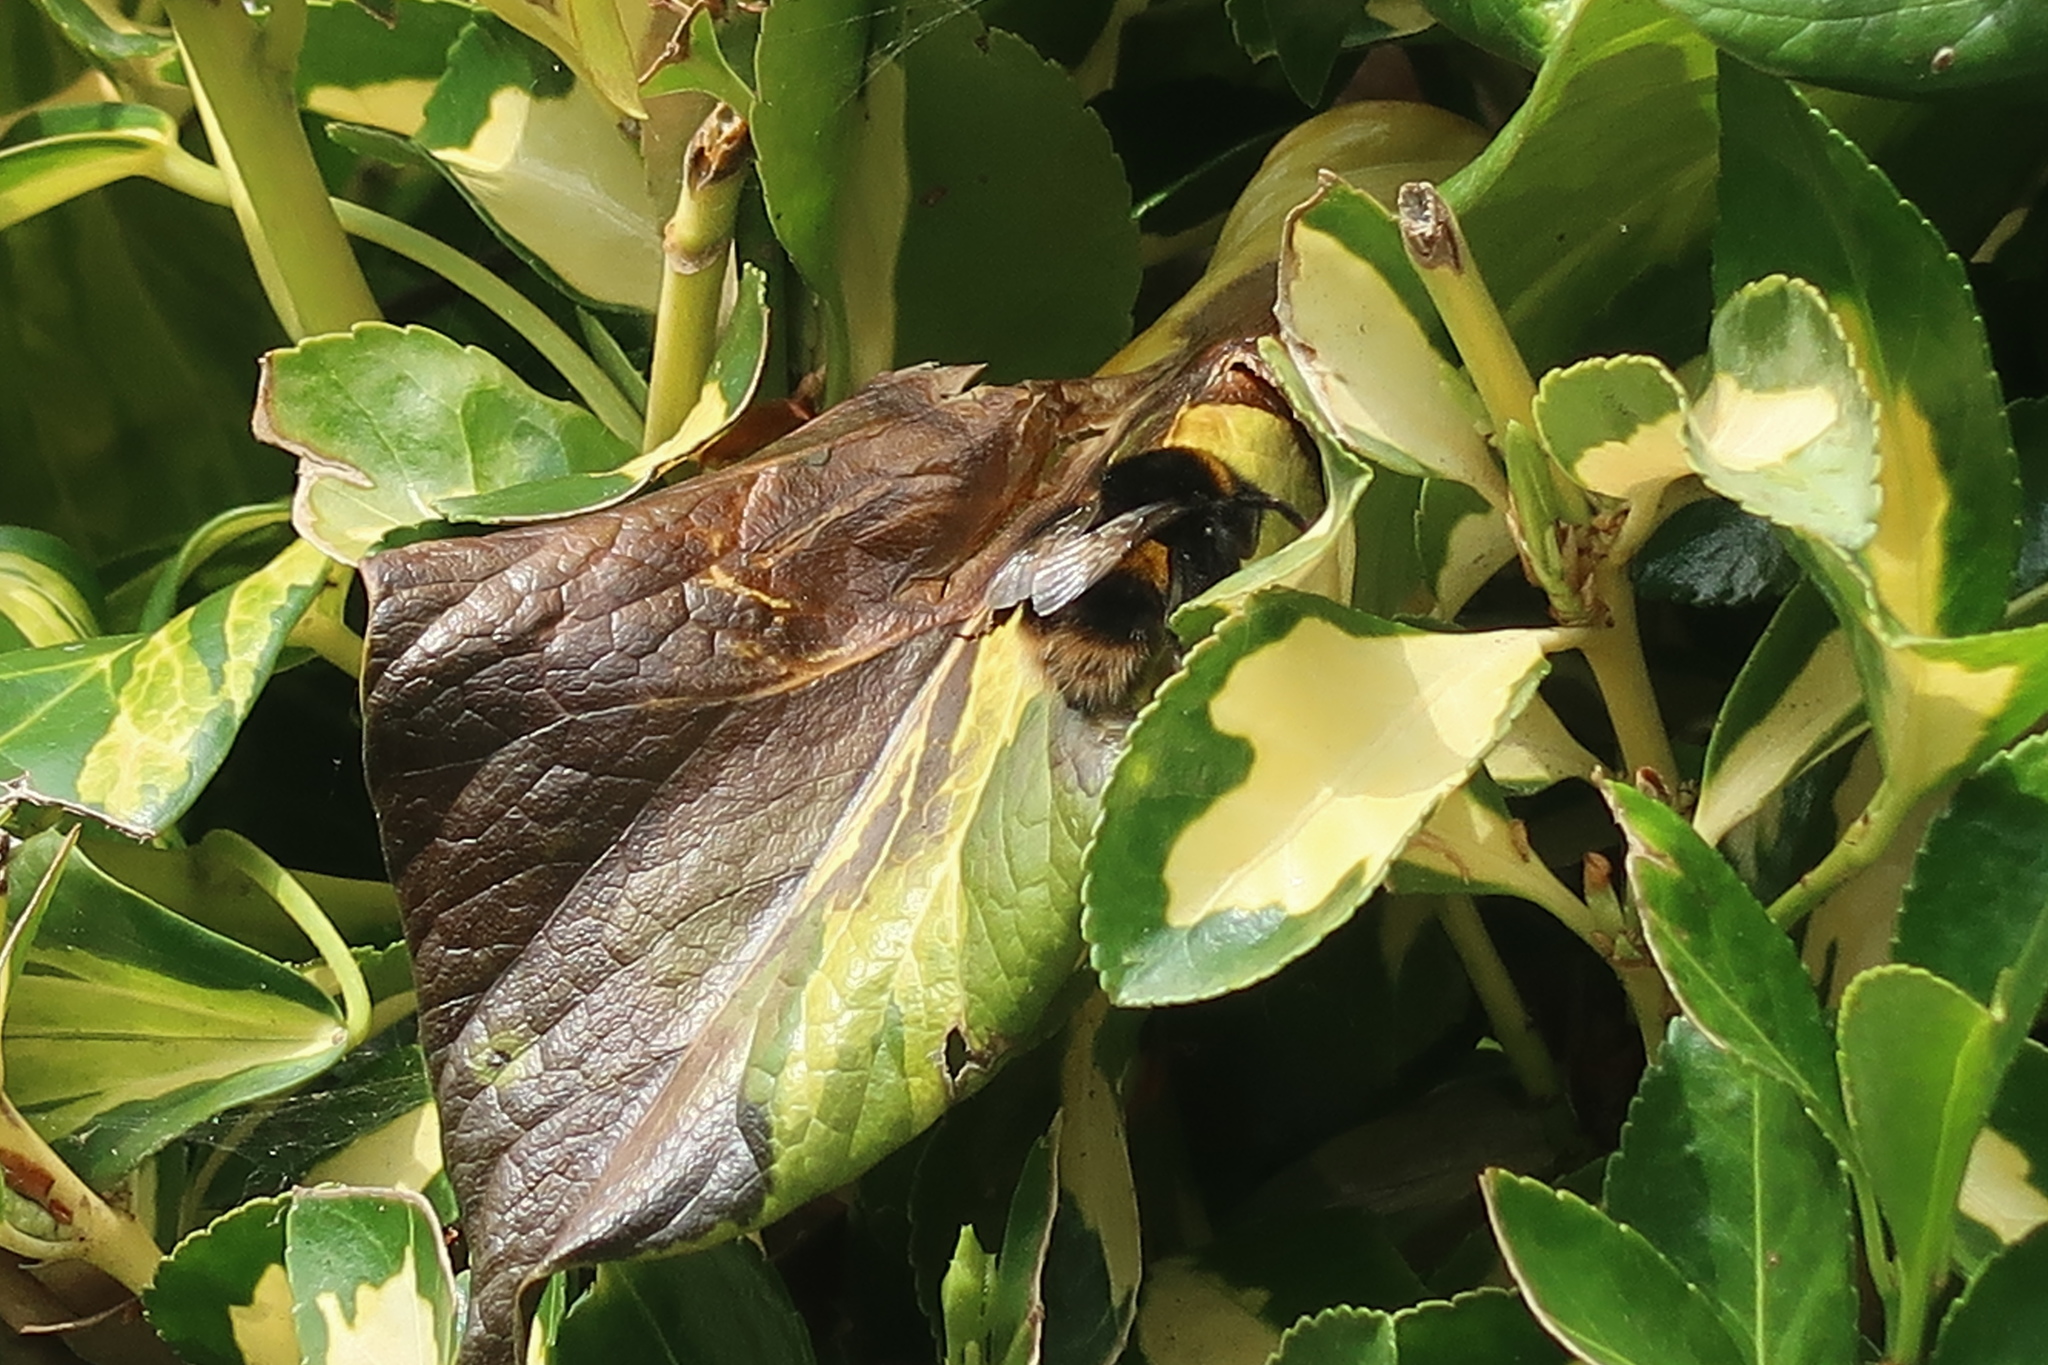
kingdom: Animalia
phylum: Arthropoda
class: Insecta
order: Hymenoptera
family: Apidae
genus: Bombus
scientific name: Bombus terrestris
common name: Buff-tailed bumblebee
